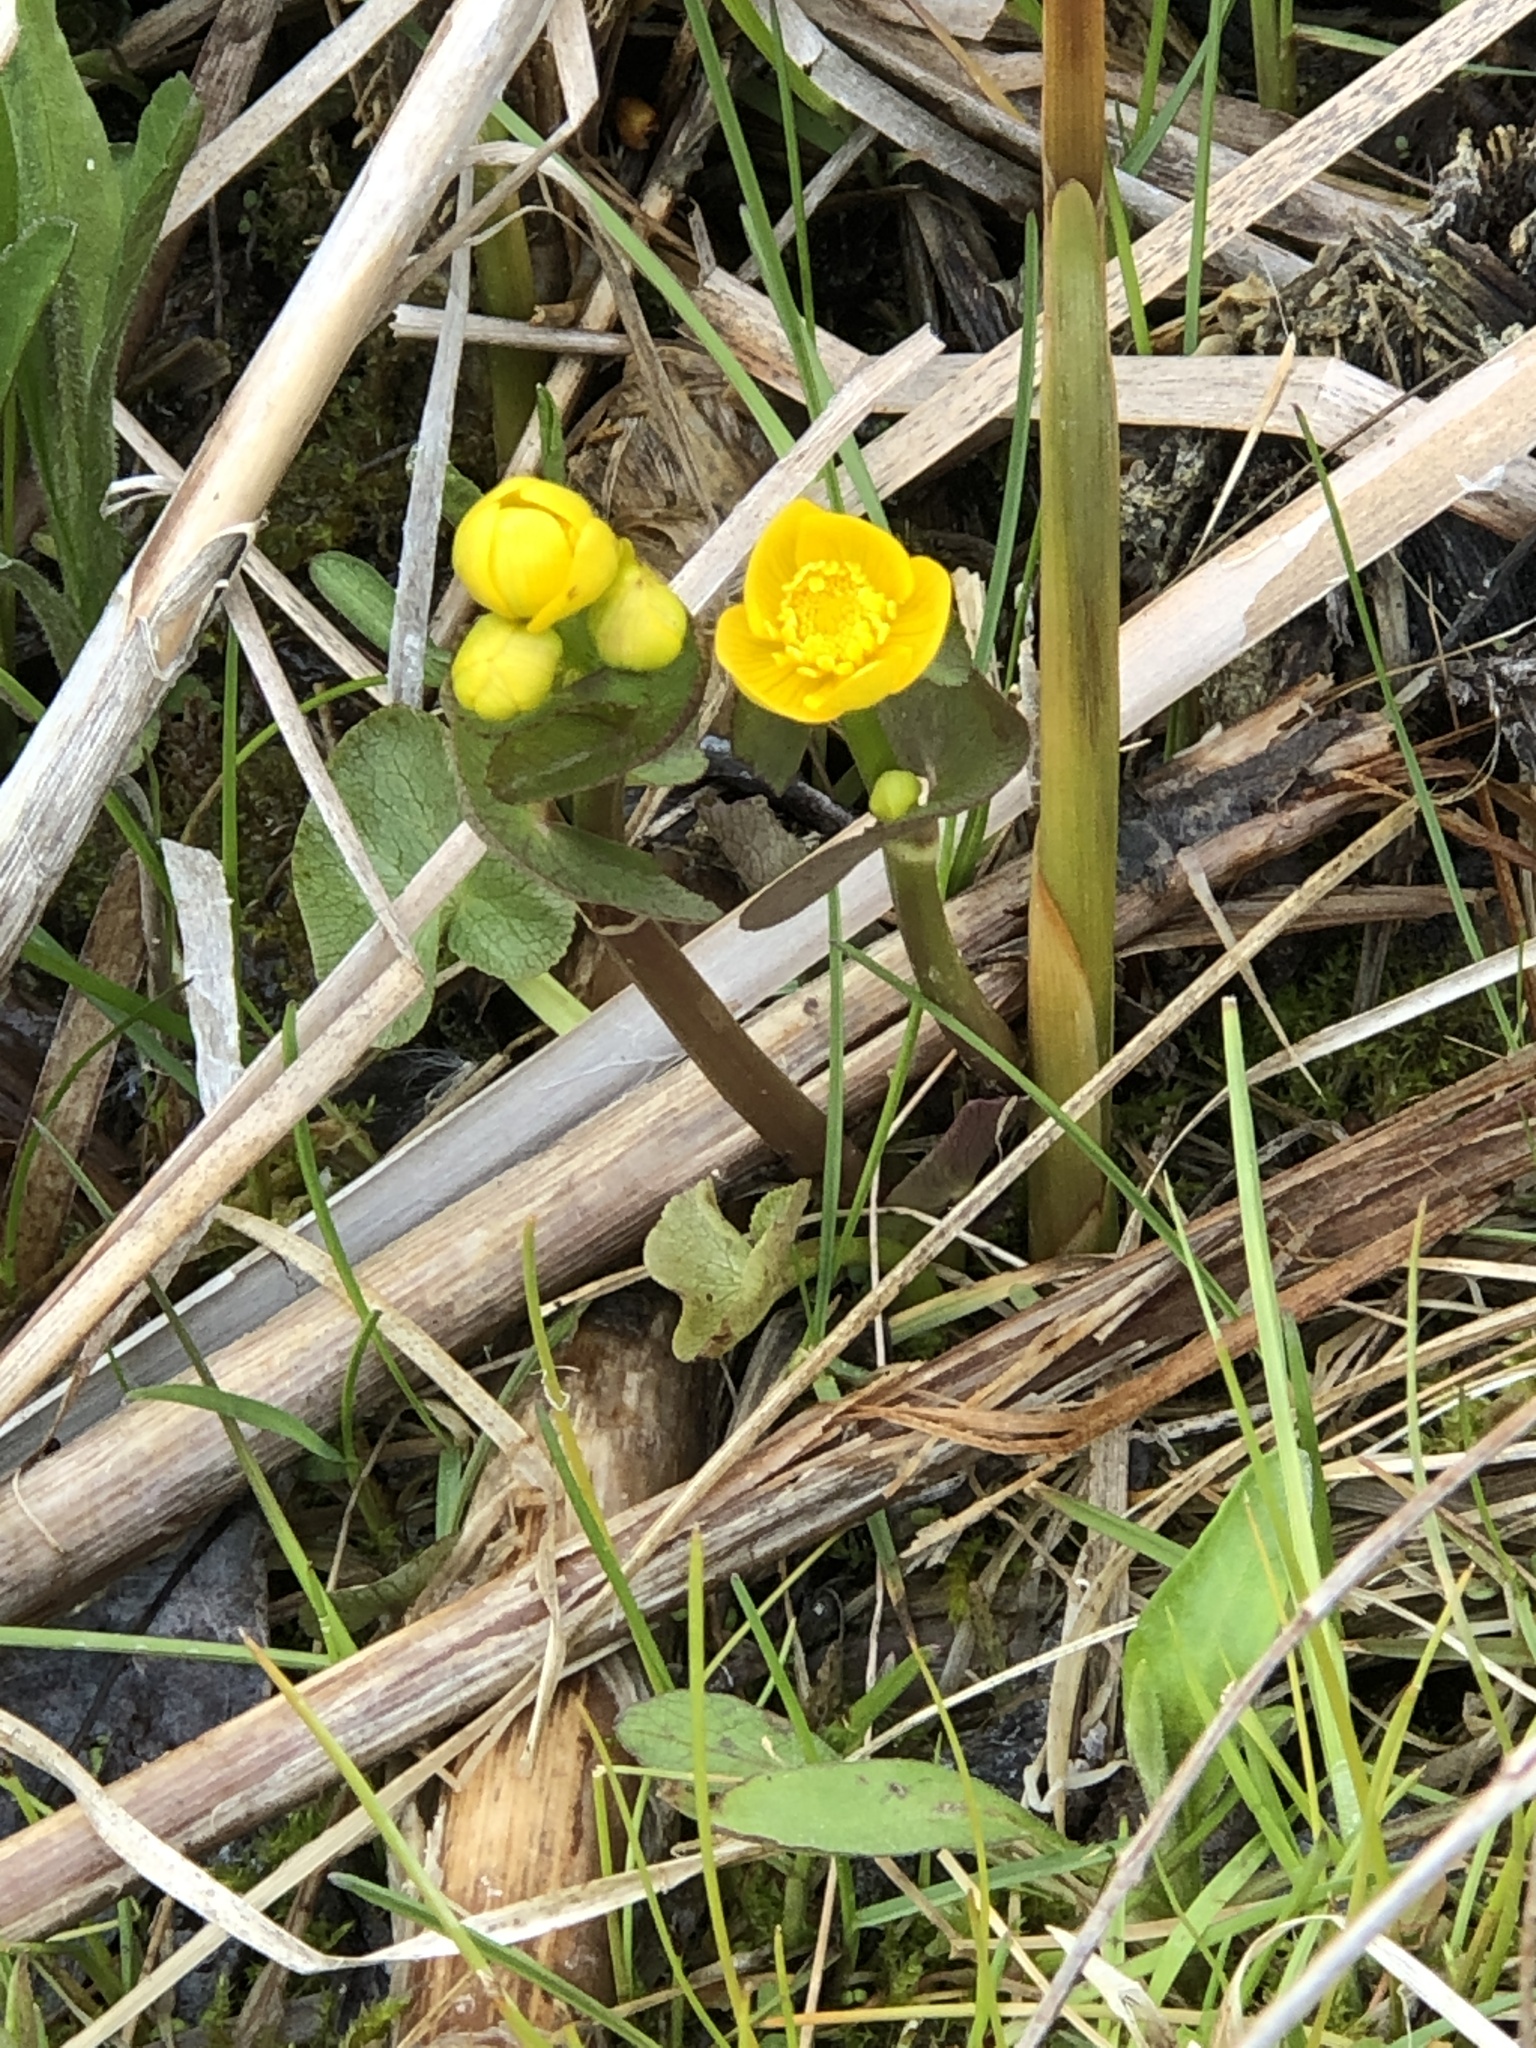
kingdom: Plantae
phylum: Tracheophyta
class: Magnoliopsida
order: Ranunculales
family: Ranunculaceae
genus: Caltha
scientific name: Caltha palustris
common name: Marsh marigold
